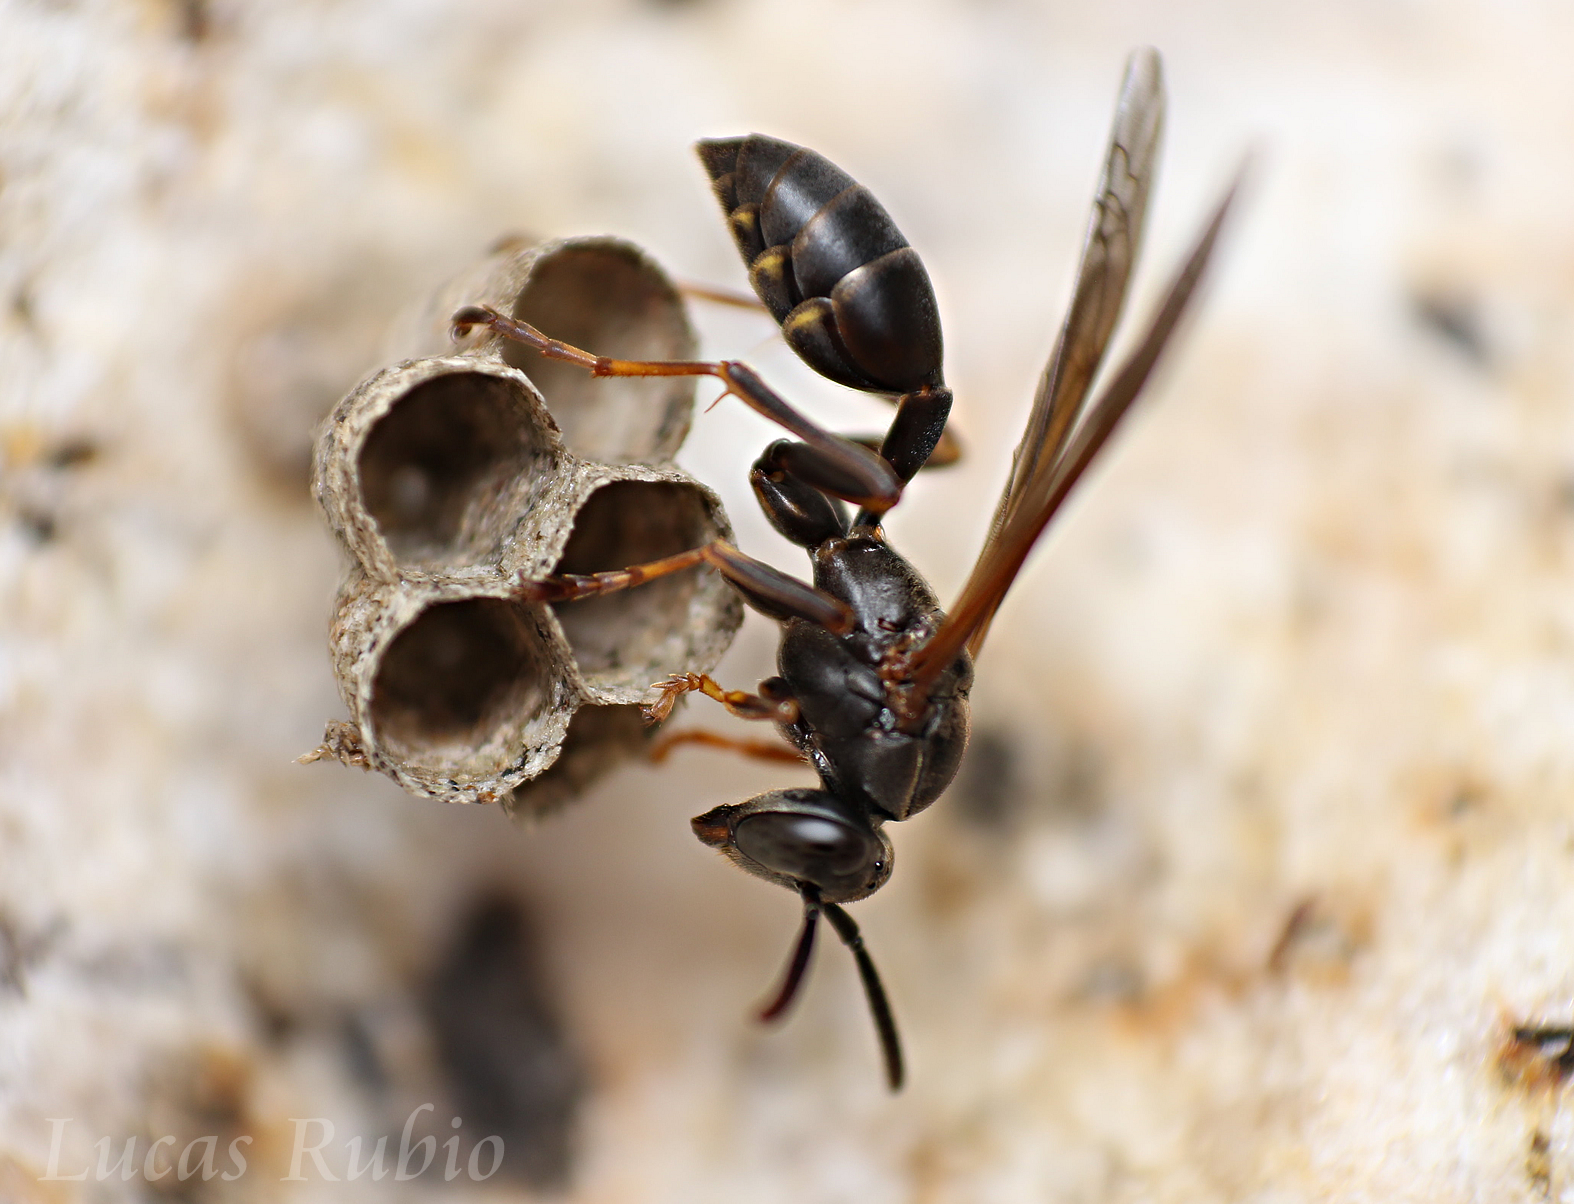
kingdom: Animalia
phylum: Arthropoda
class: Insecta
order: Hymenoptera
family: Vespidae
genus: Mischocyttarus
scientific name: Mischocyttarus cassanunga
